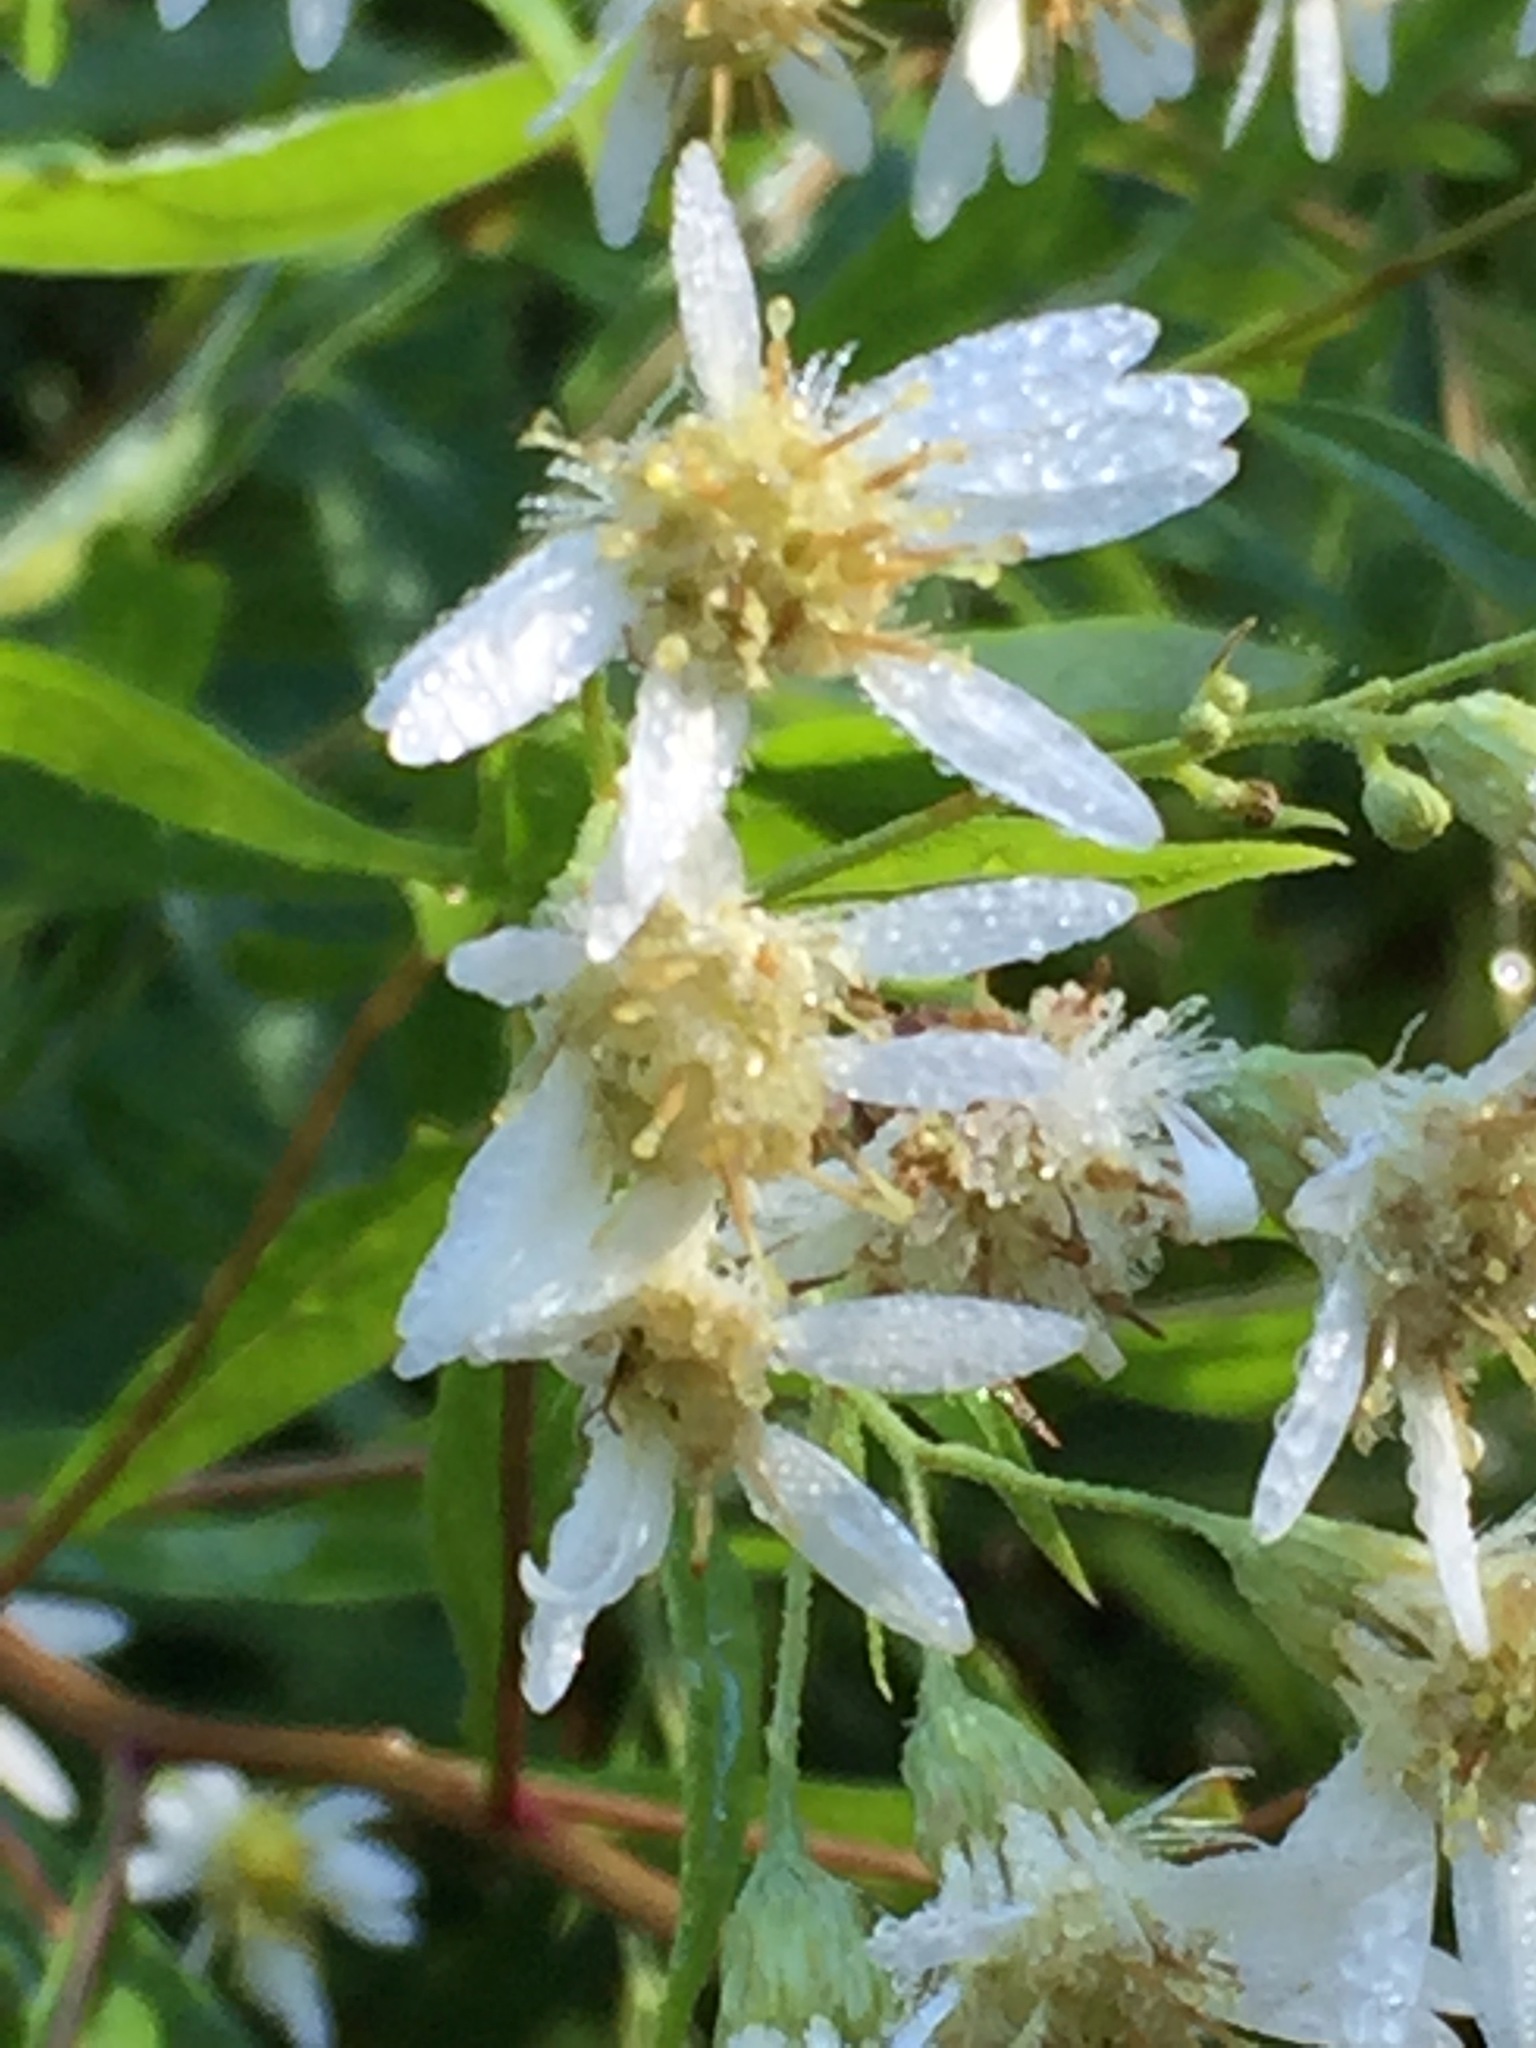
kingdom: Plantae
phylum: Tracheophyta
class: Magnoliopsida
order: Asterales
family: Asteraceae
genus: Doellingeria
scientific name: Doellingeria umbellata
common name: Flat-top white aster
